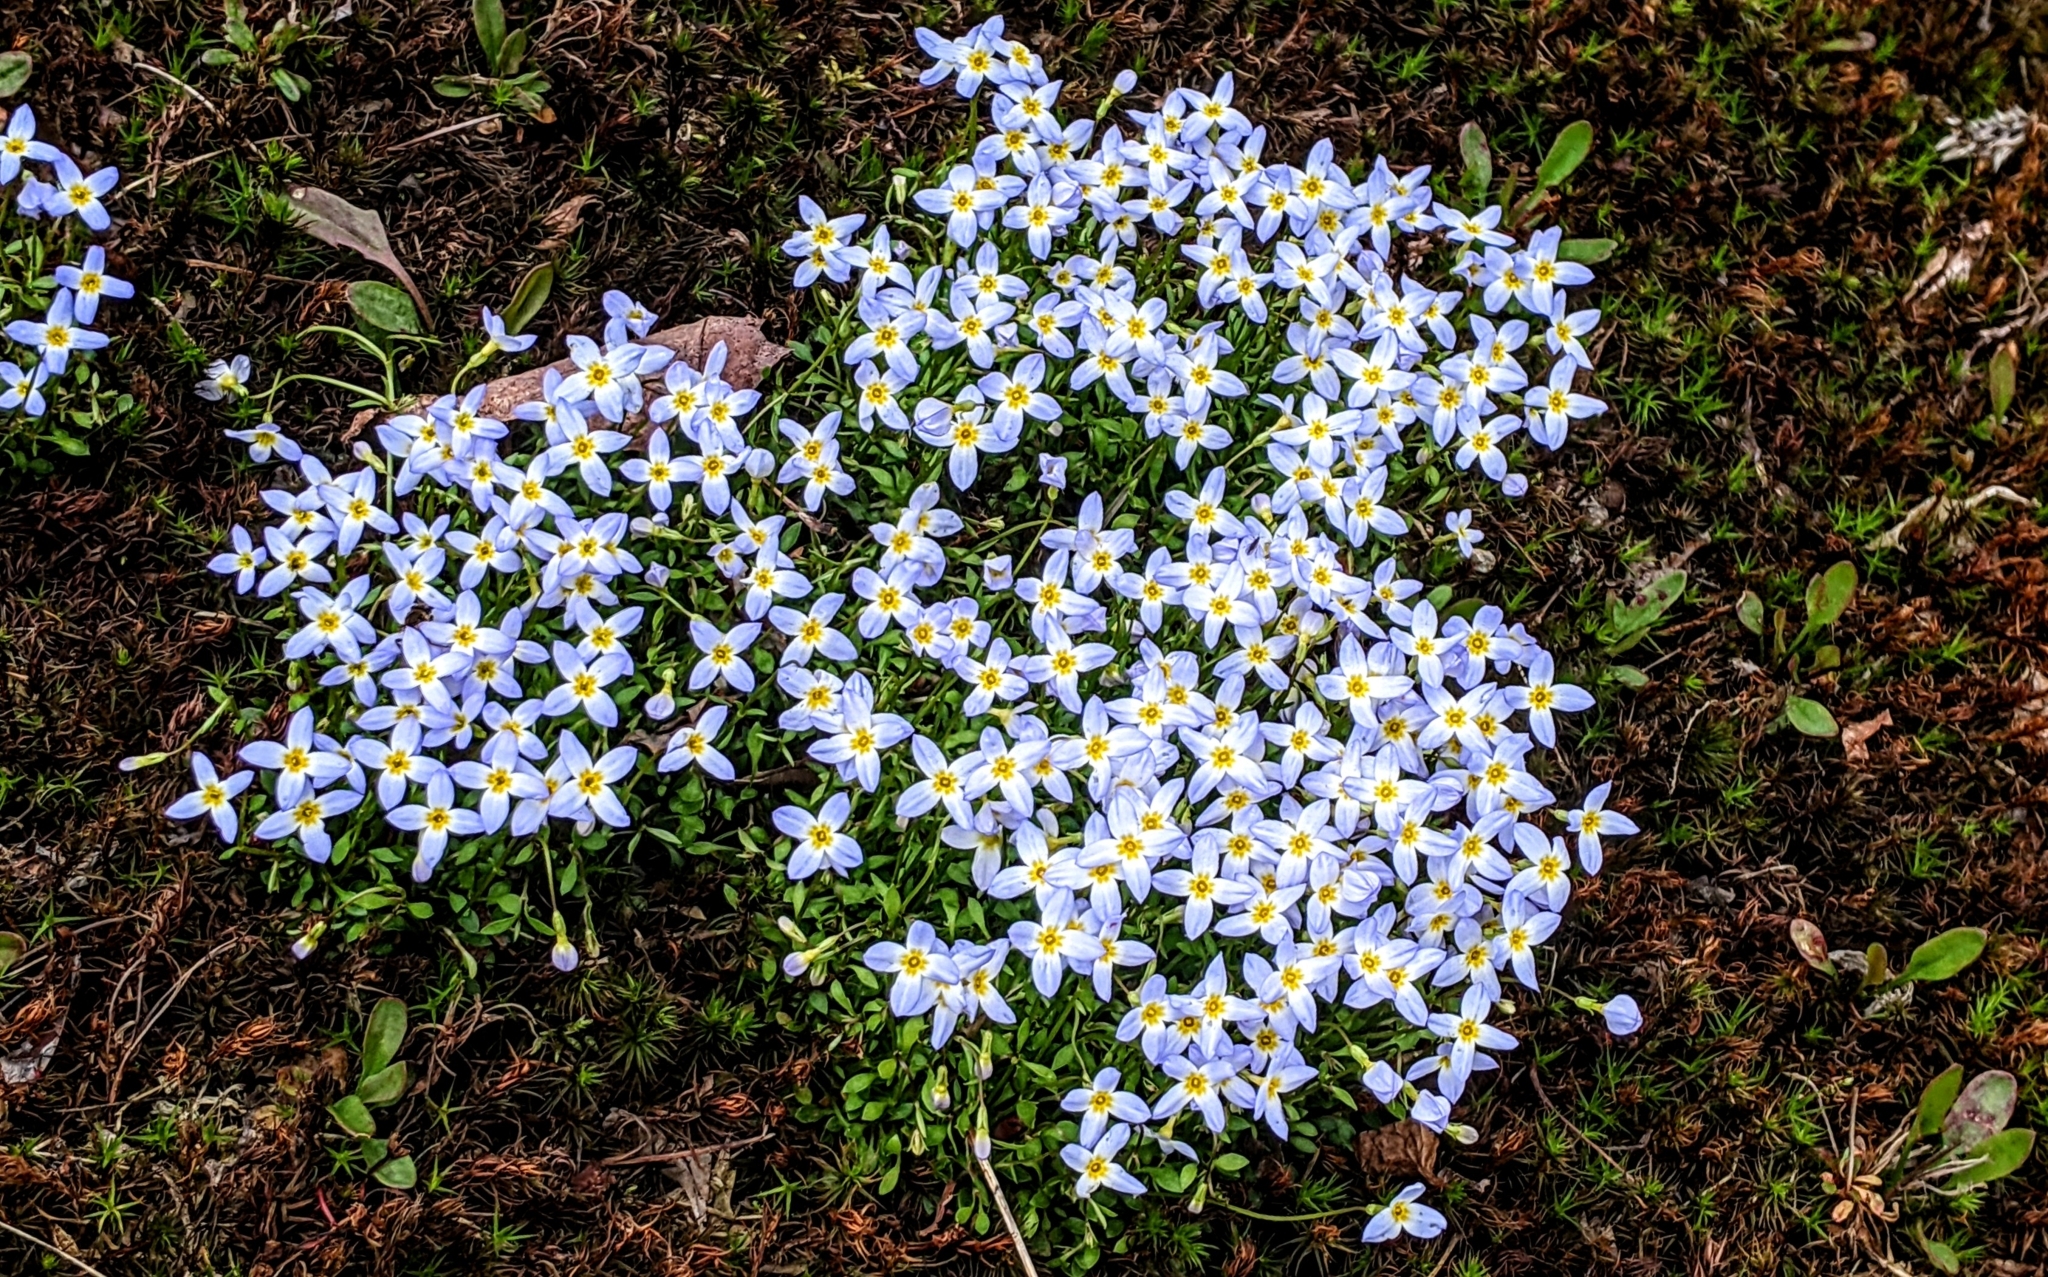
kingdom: Plantae
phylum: Tracheophyta
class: Magnoliopsida
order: Gentianales
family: Rubiaceae
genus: Houstonia
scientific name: Houstonia caerulea
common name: Bluets
